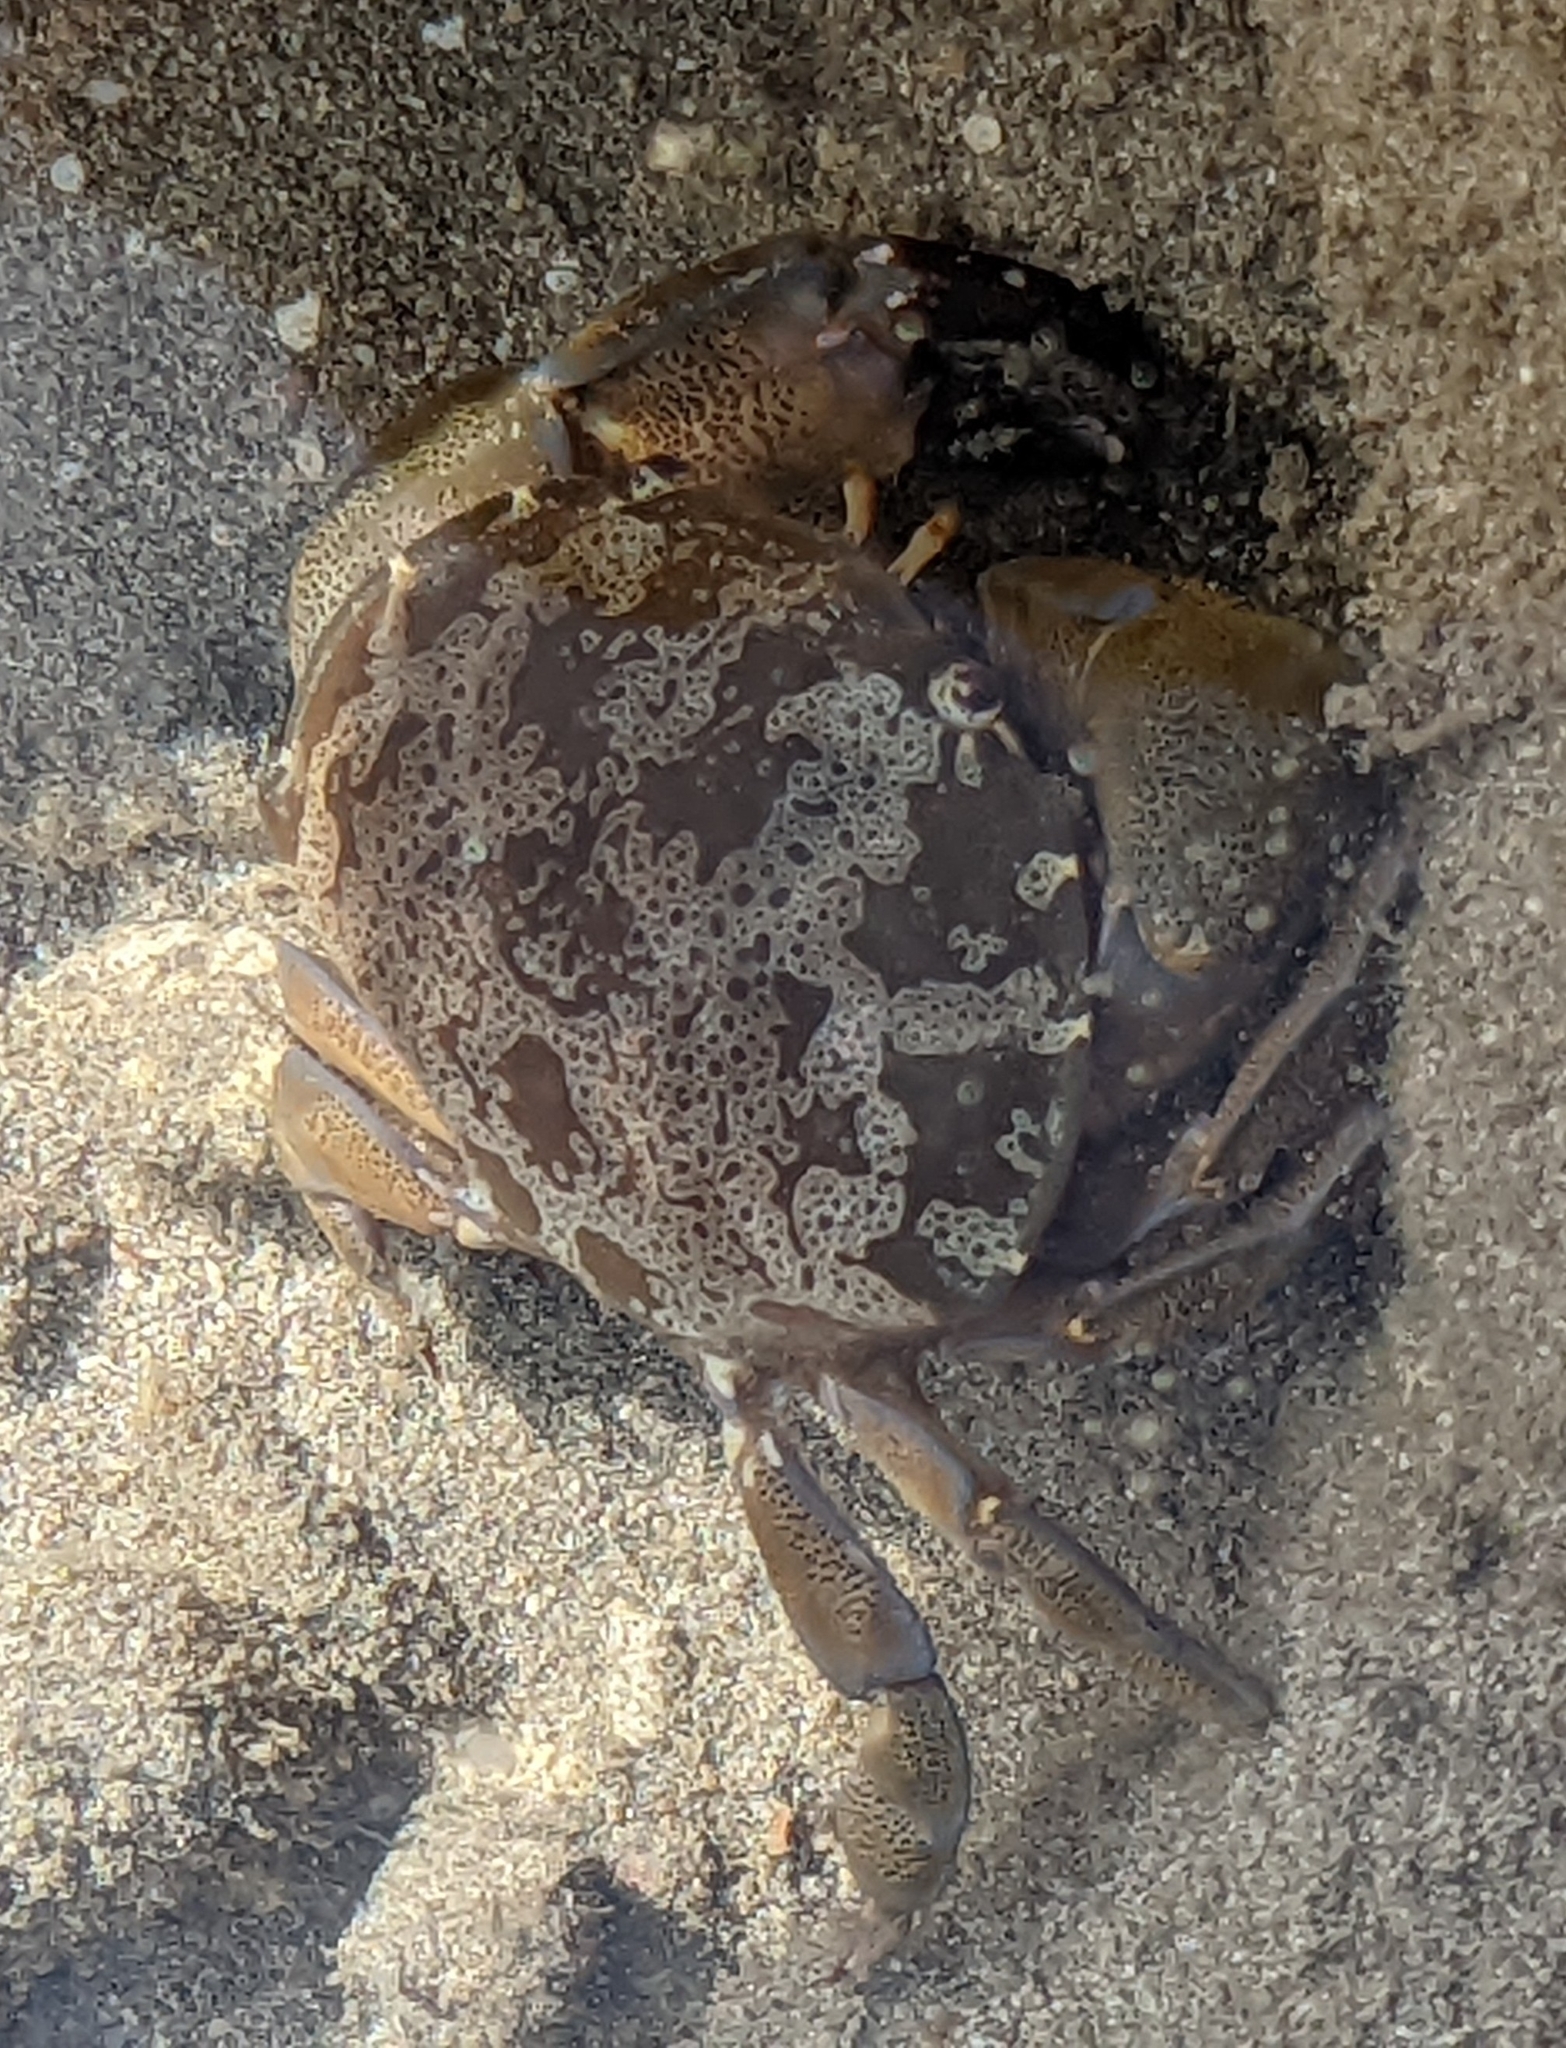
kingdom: Animalia
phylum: Arthropoda
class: Malacostraca
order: Decapoda
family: Xanthidae
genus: Atergatis
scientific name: Atergatis floridus
